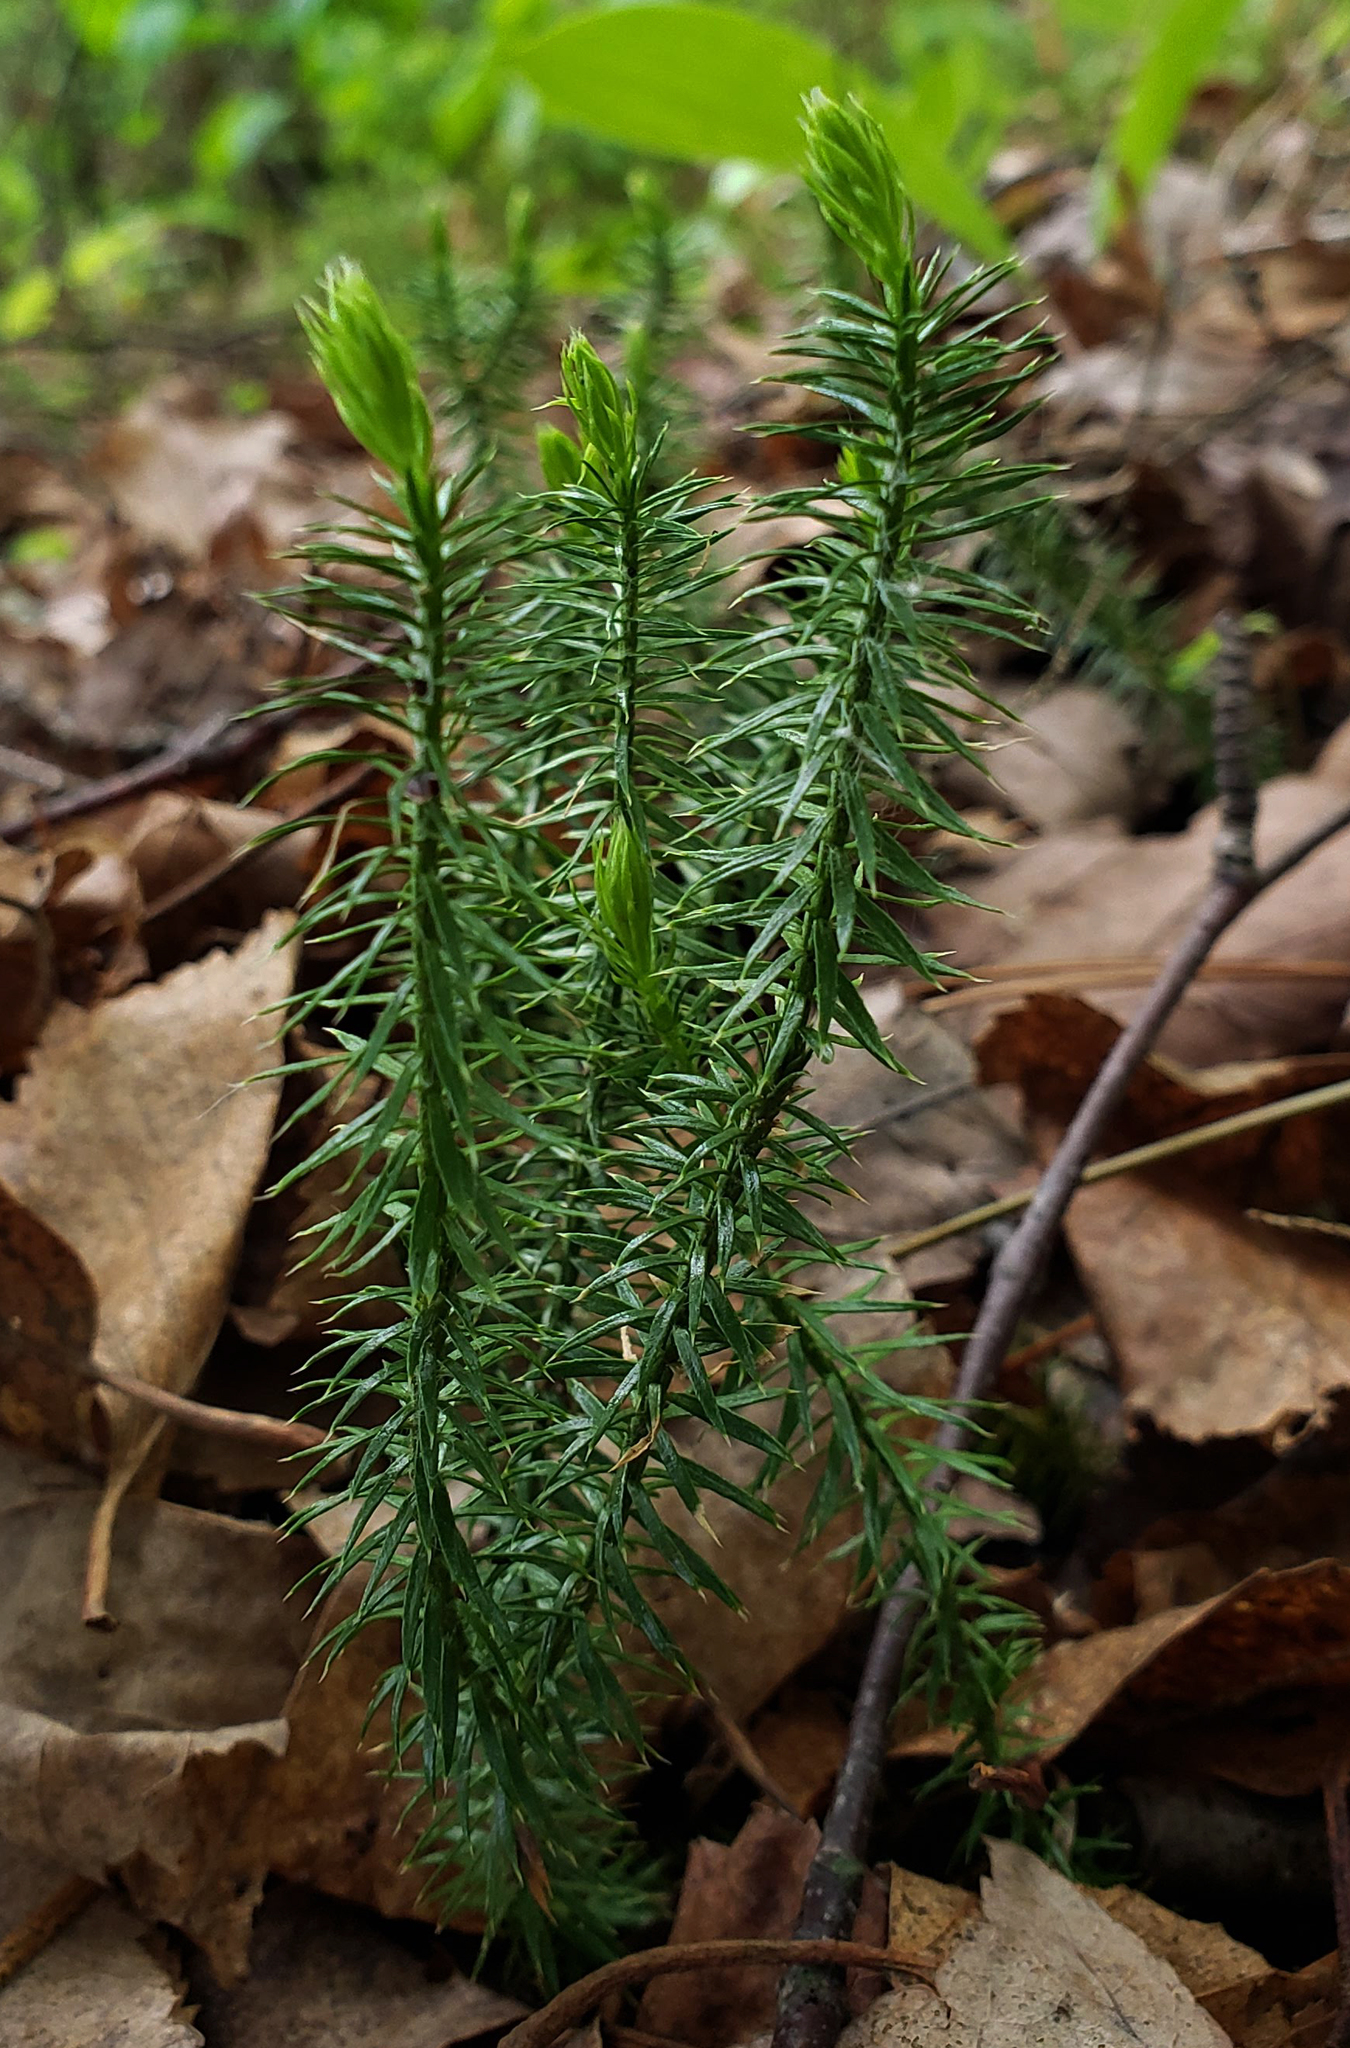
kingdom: Plantae
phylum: Tracheophyta
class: Lycopodiopsida
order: Lycopodiales
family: Lycopodiaceae
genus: Spinulum
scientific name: Spinulum annotinum
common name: Interrupted club-moss
